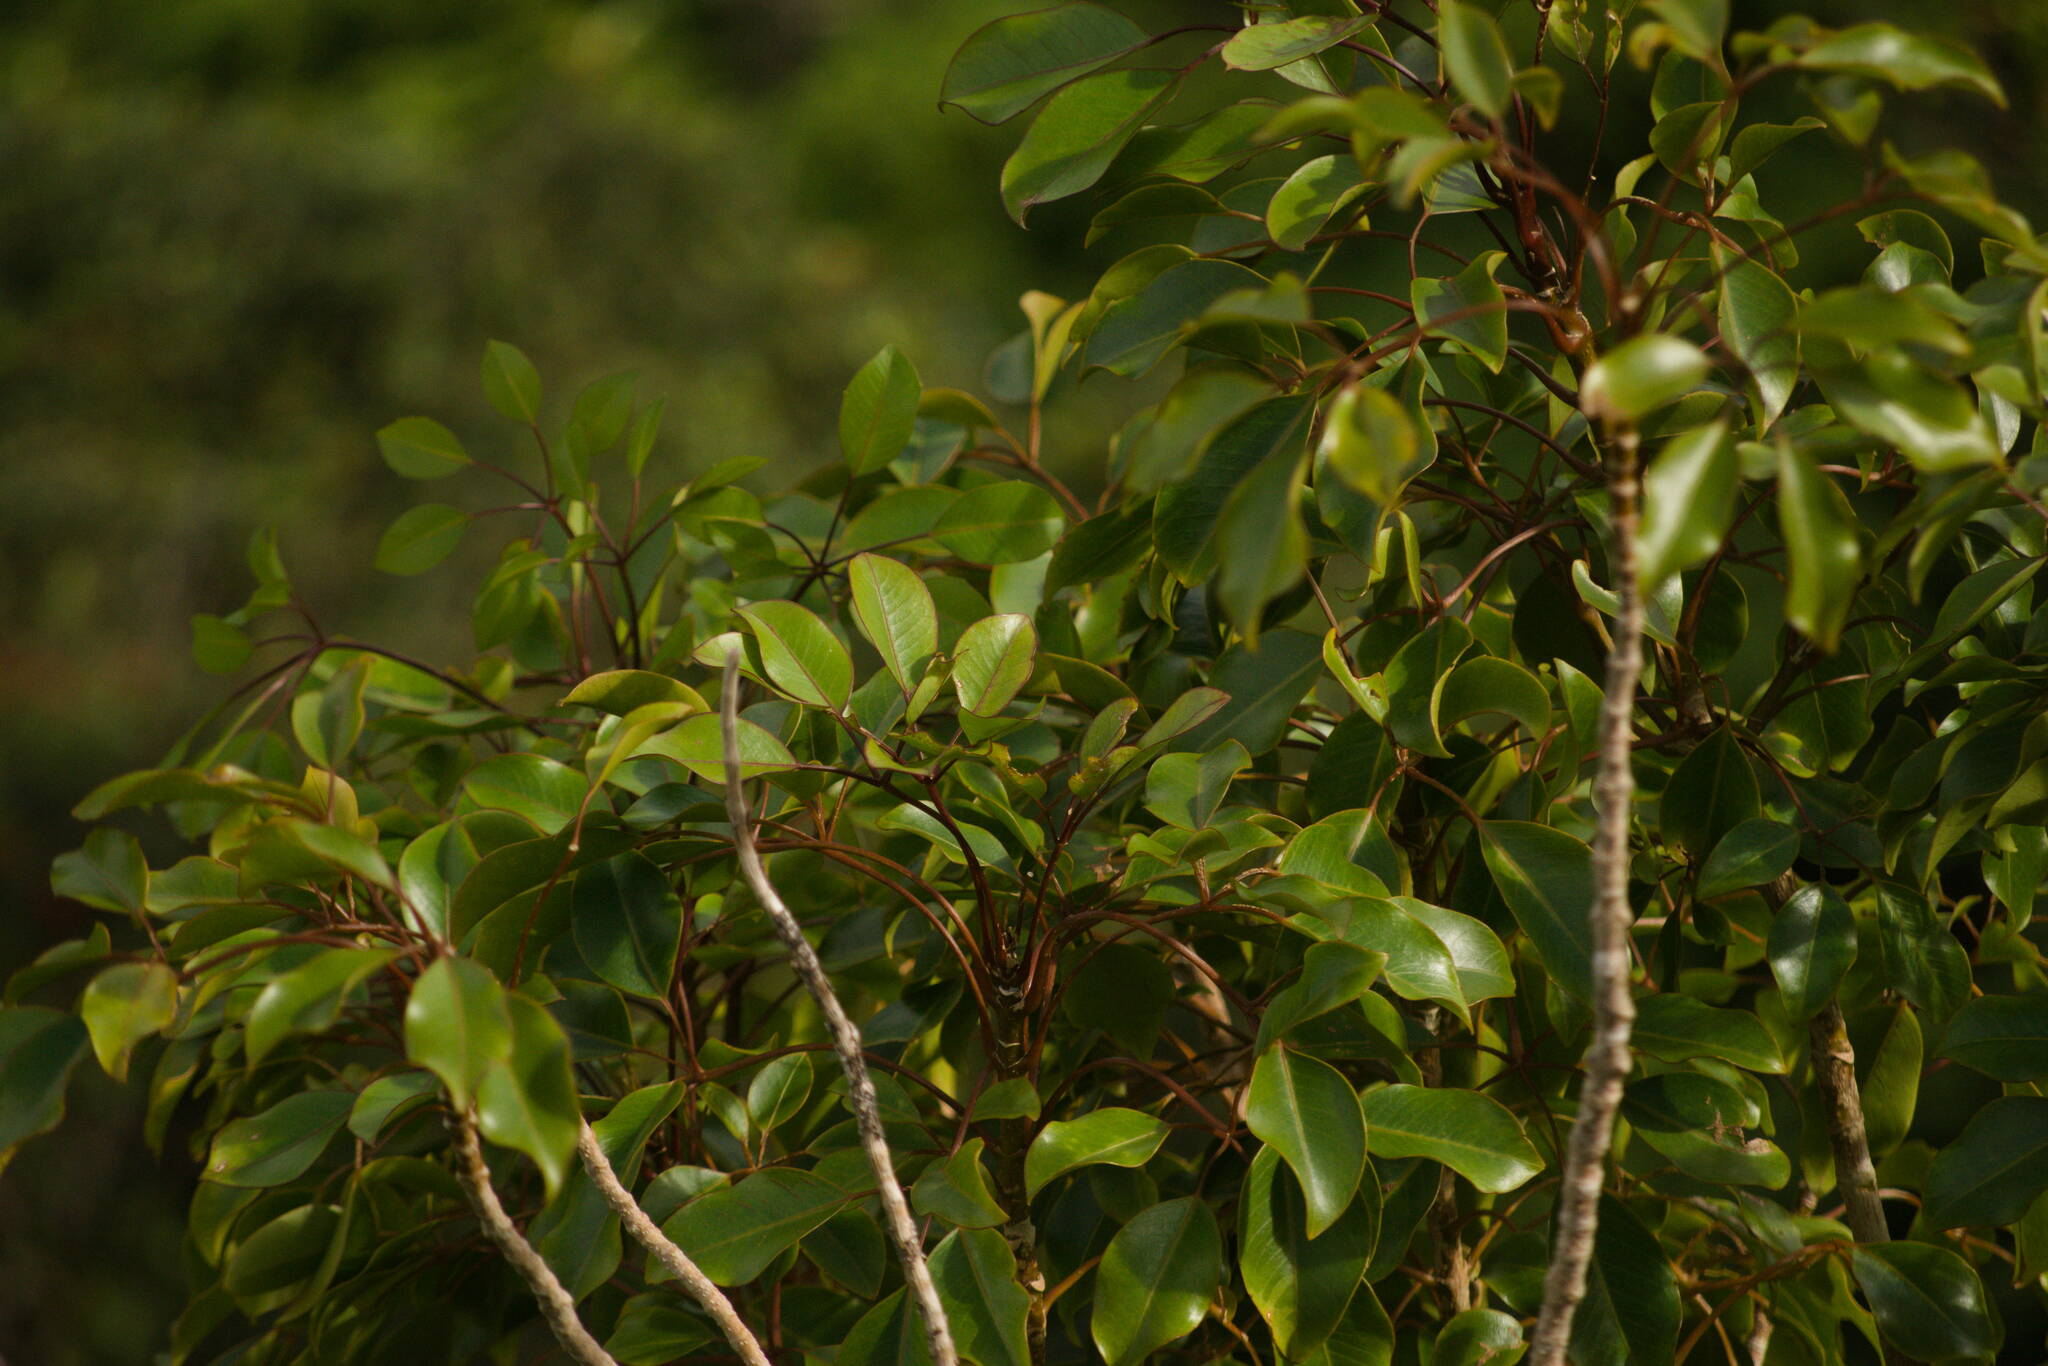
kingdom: Plantae
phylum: Tracheophyta
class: Magnoliopsida
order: Apiales
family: Araliaceae
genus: Cheirodendron
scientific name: Cheirodendron trigynum
